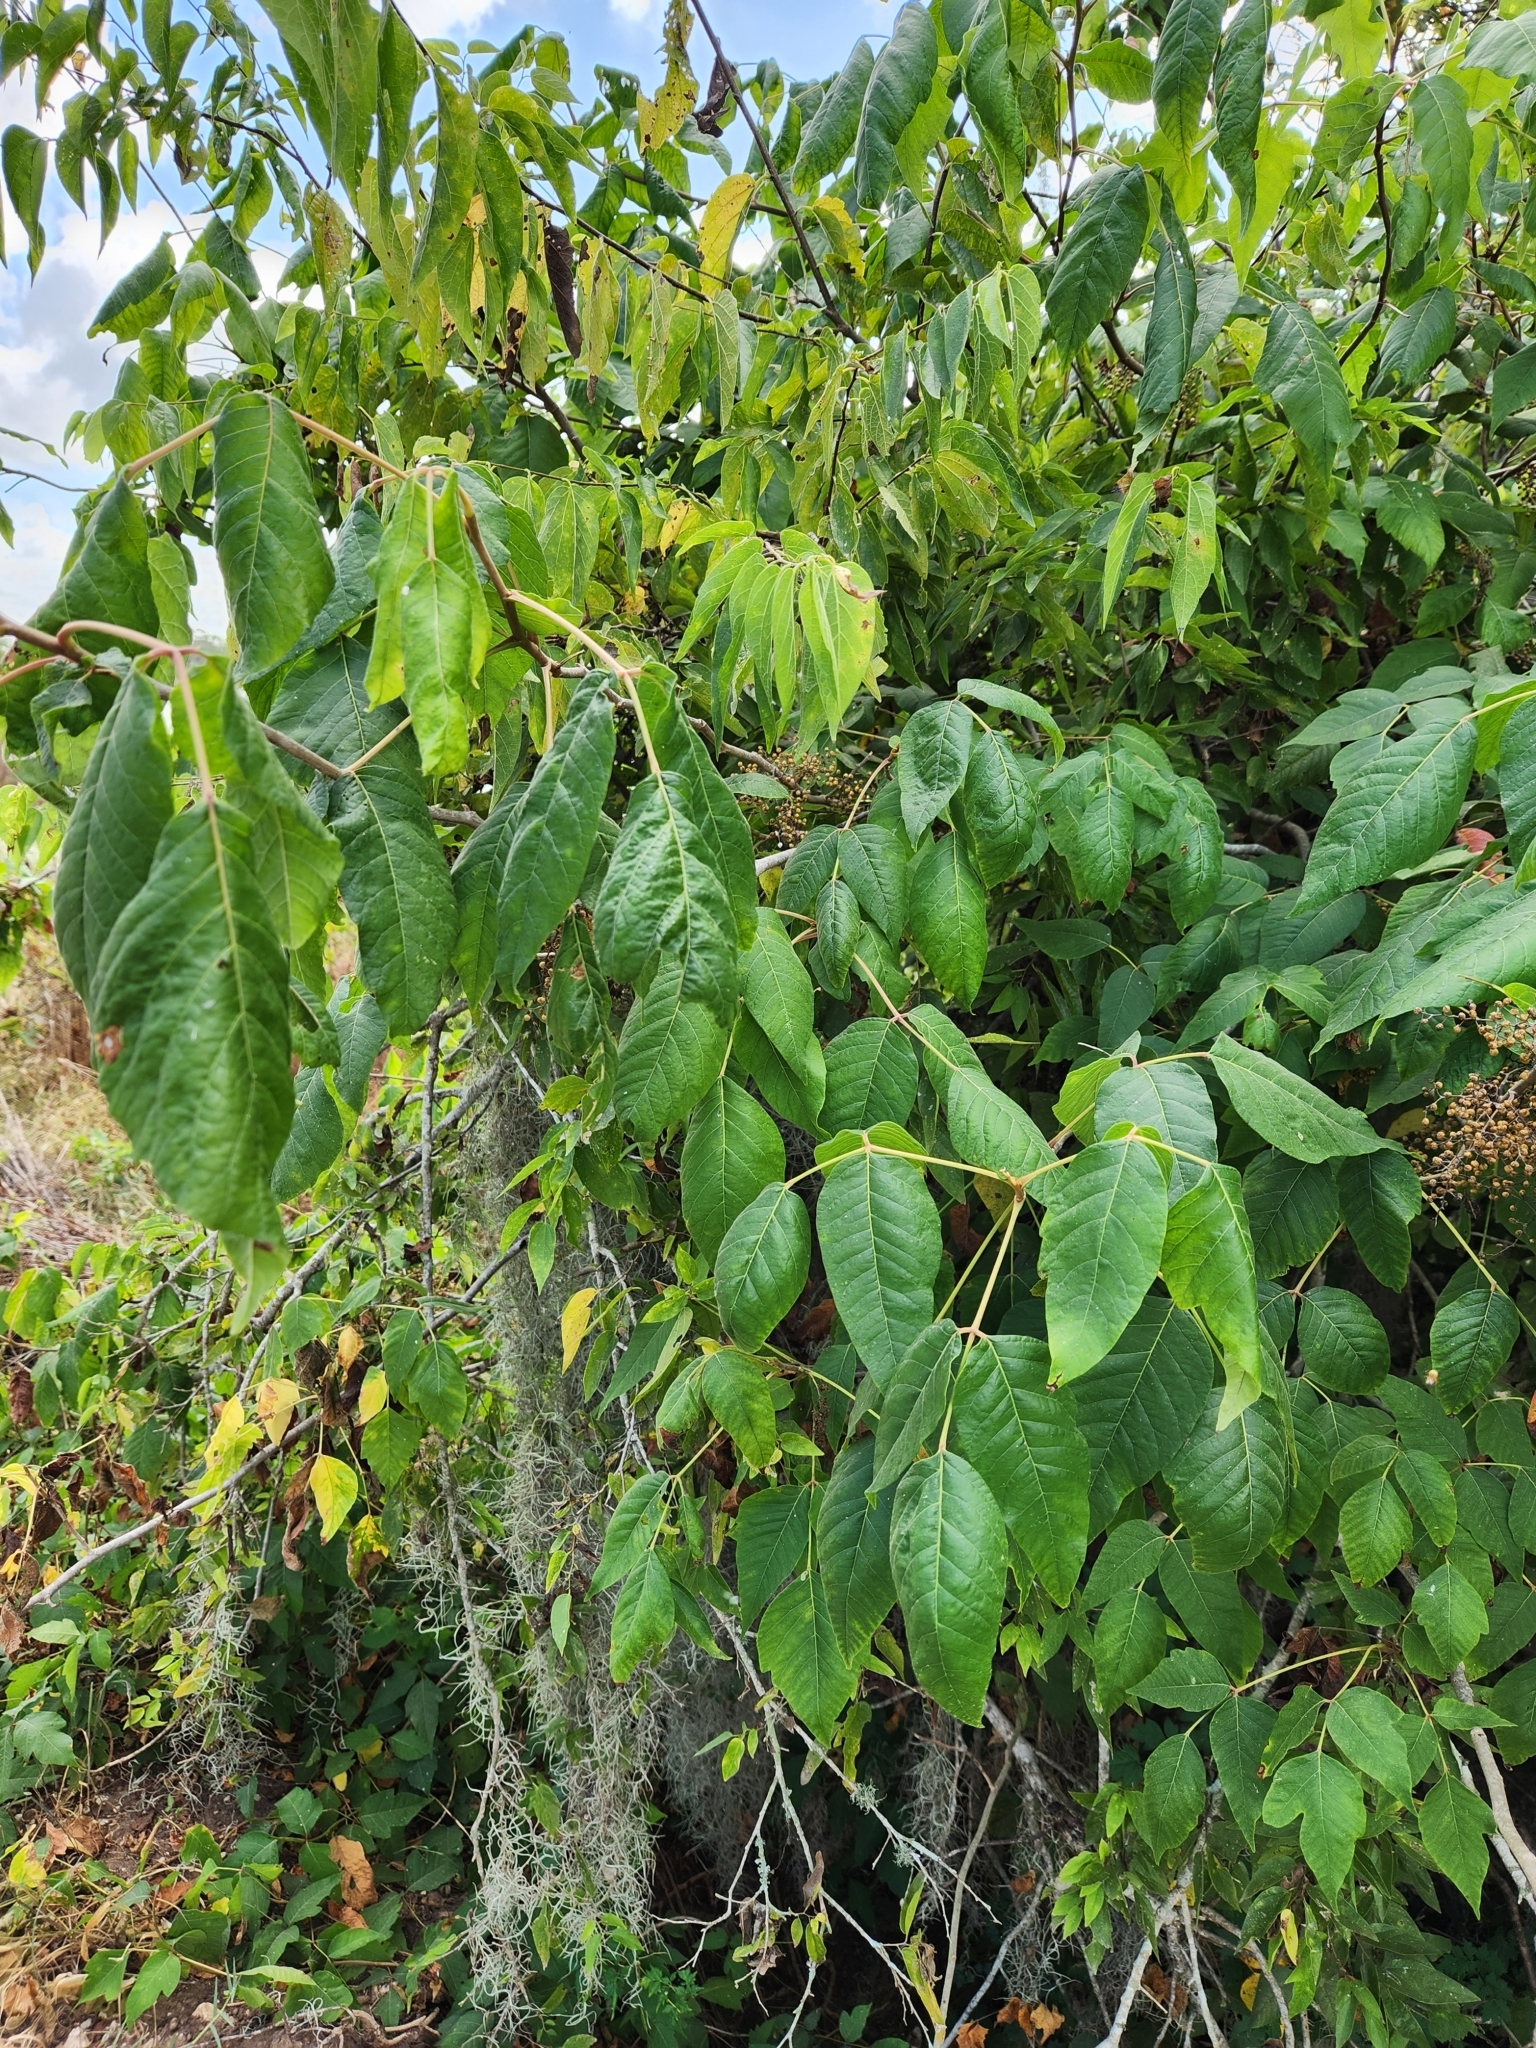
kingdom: Plantae
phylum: Tracheophyta
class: Magnoliopsida
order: Sapindales
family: Anacardiaceae
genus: Toxicodendron
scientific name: Toxicodendron radicans
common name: Poison ivy
